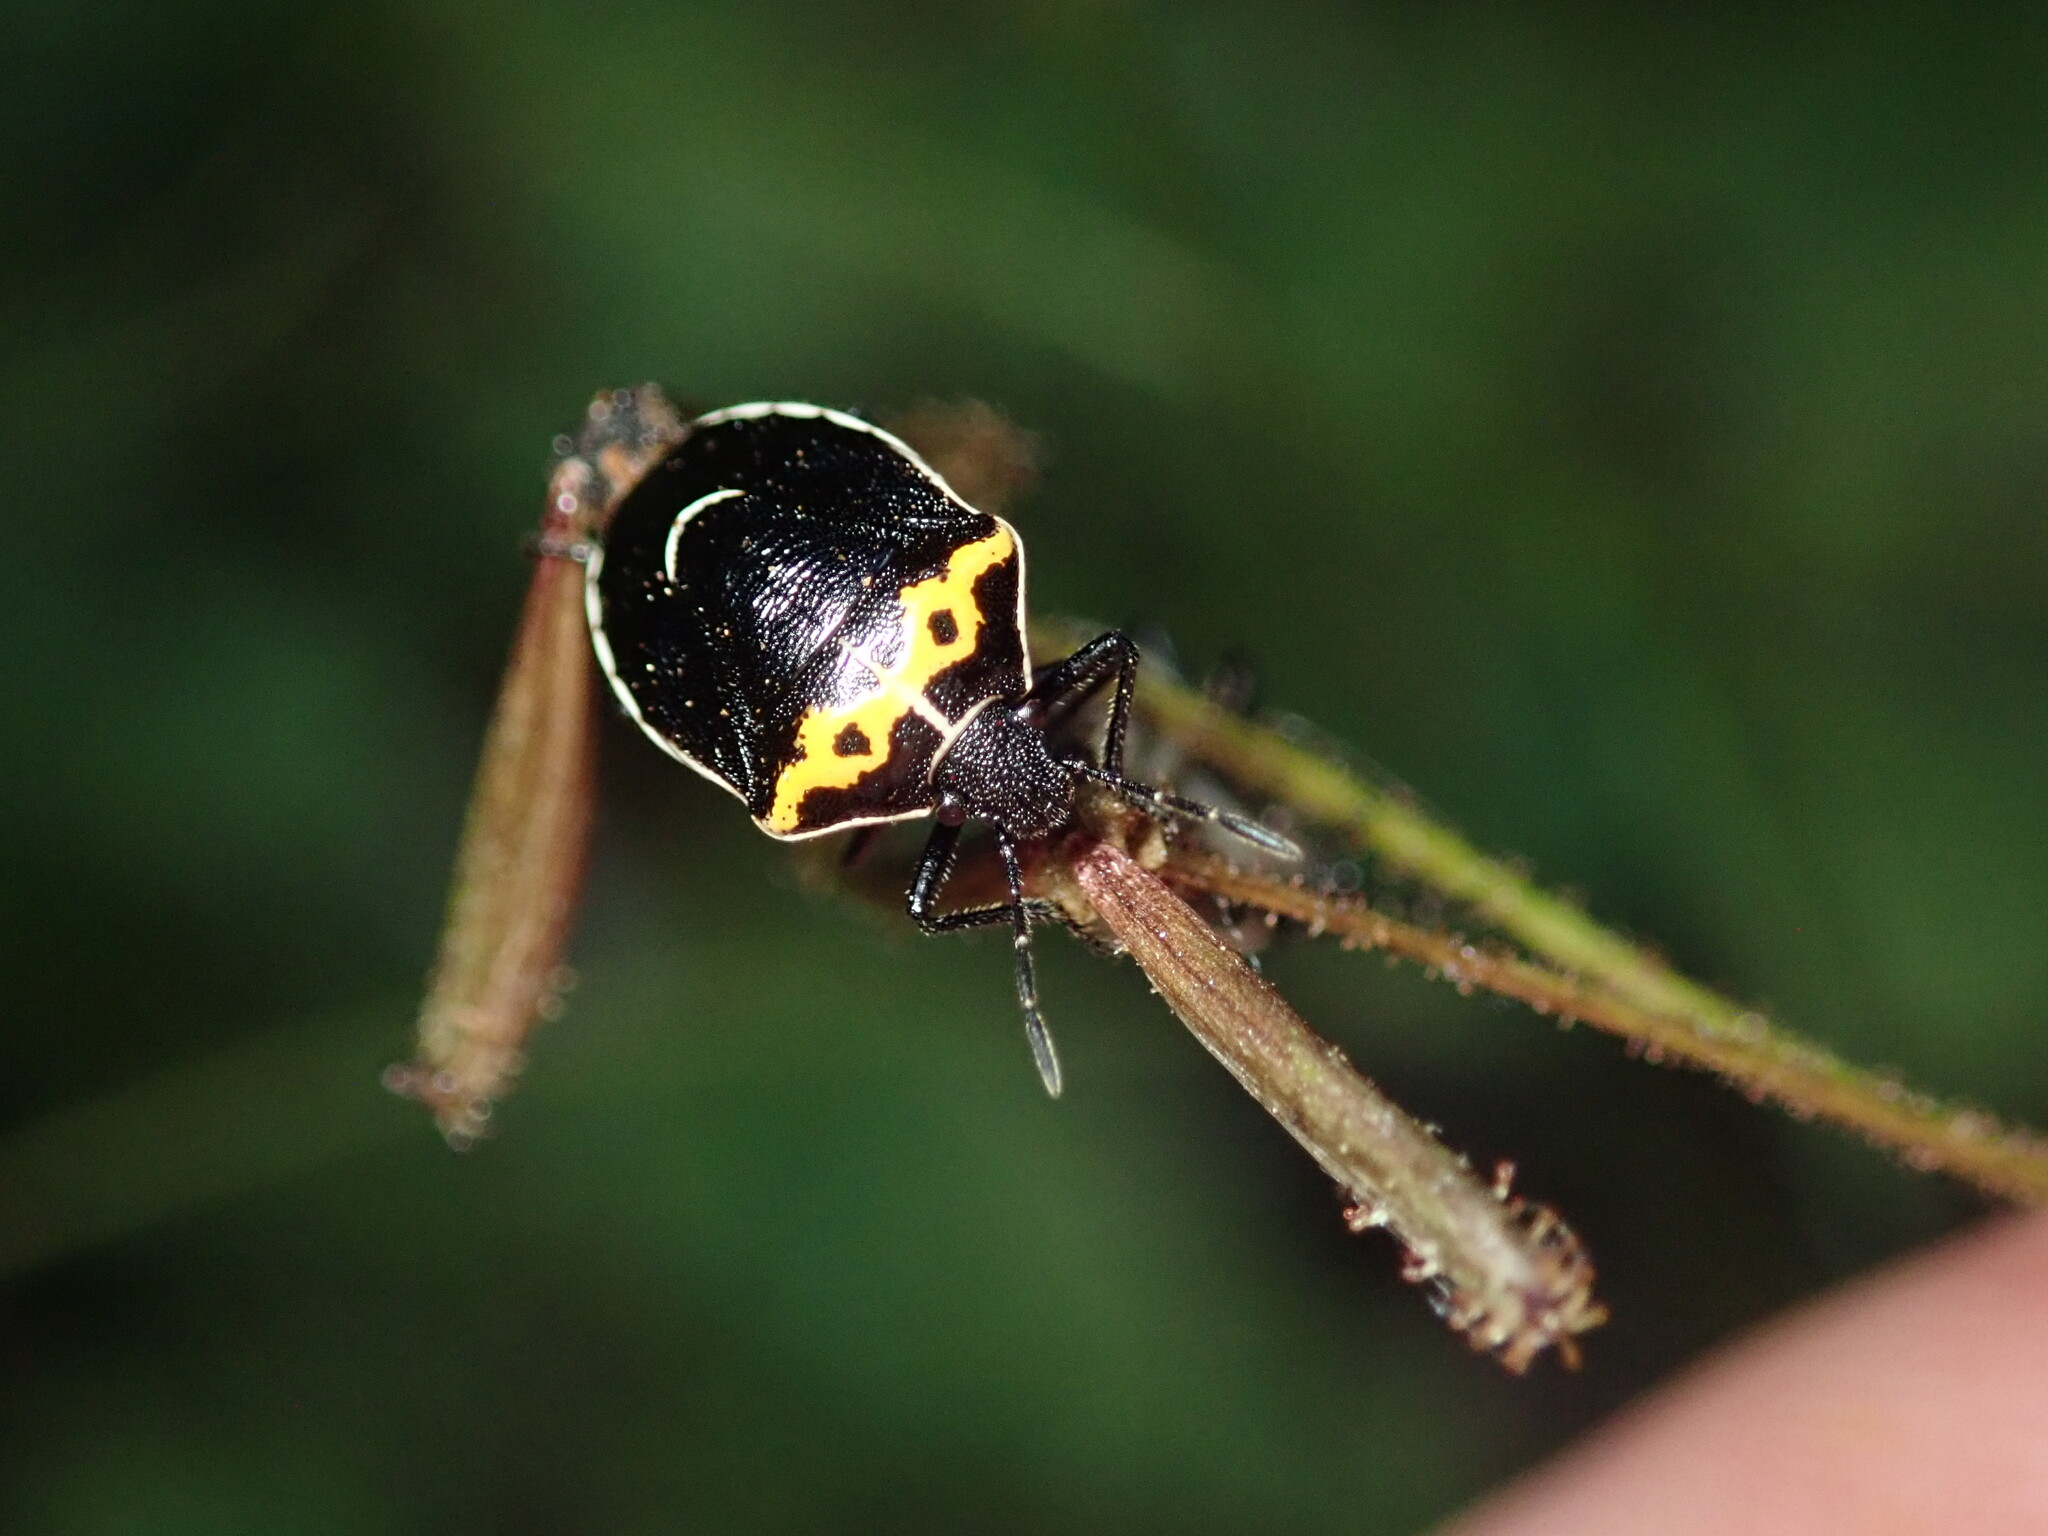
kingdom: Animalia
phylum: Arthropoda
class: Insecta
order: Hemiptera
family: Pentatomidae
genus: Cosmopepla
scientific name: Cosmopepla conspicillaris
